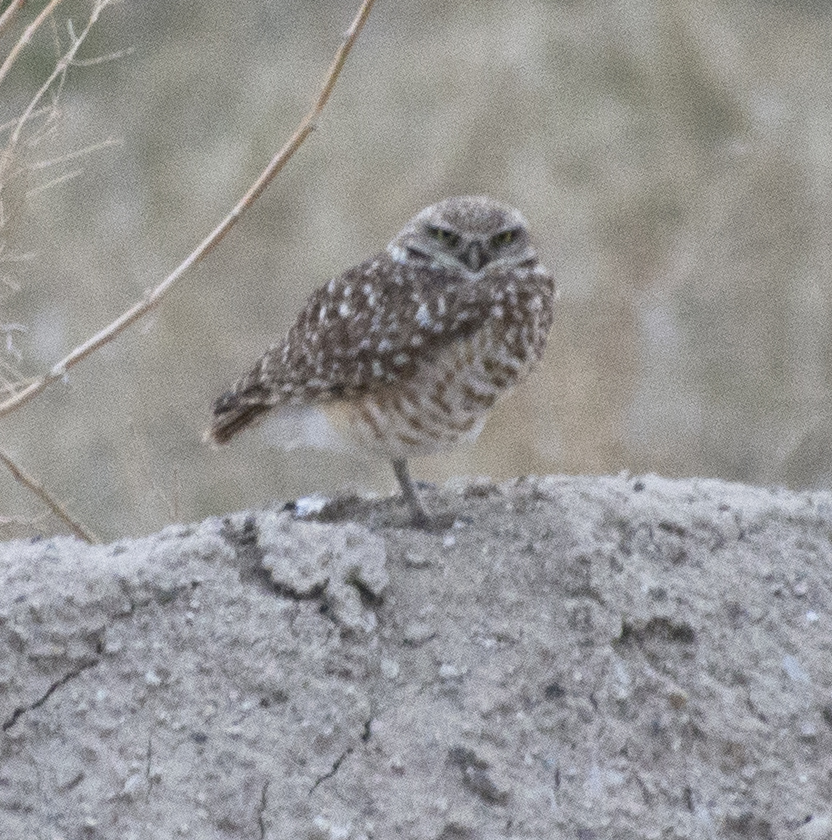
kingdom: Animalia
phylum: Chordata
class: Aves
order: Strigiformes
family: Strigidae
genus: Athene
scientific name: Athene cunicularia
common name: Burrowing owl
